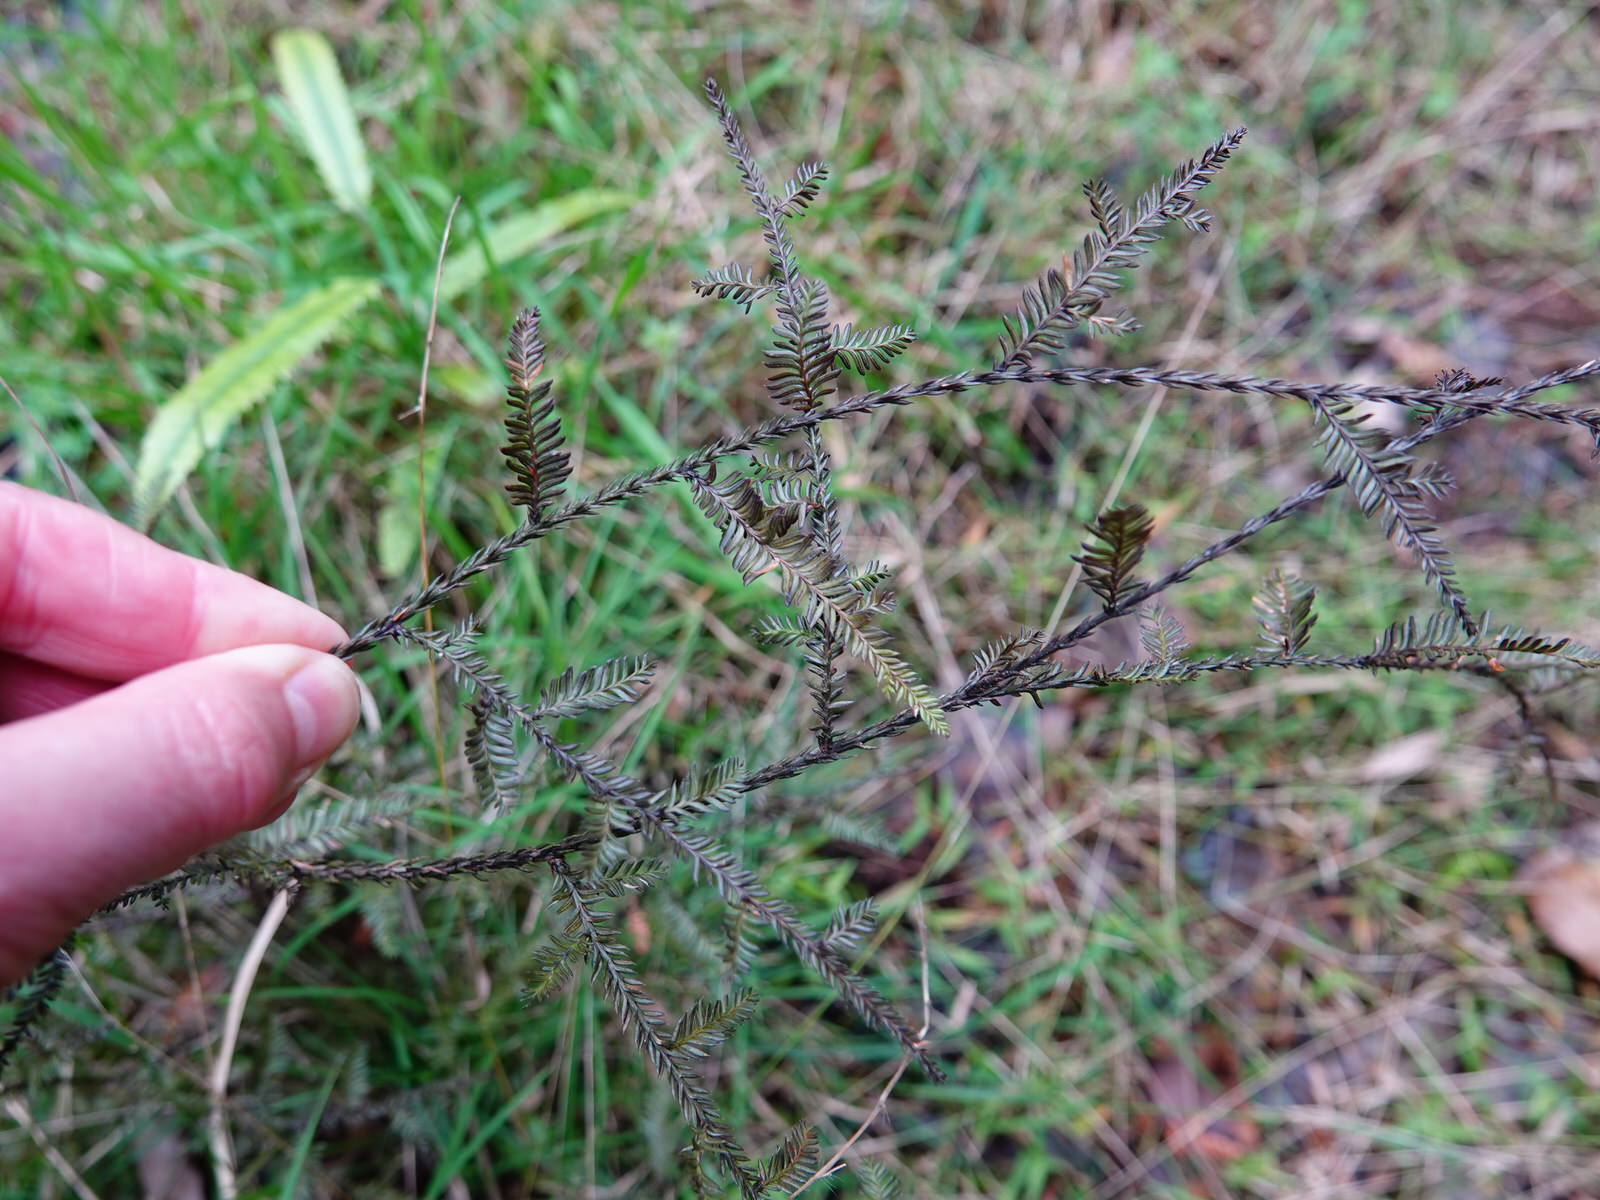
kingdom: Plantae
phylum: Tracheophyta
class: Pinopsida
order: Pinales
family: Podocarpaceae
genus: Dacrycarpus
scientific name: Dacrycarpus dacrydioides
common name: White pine
